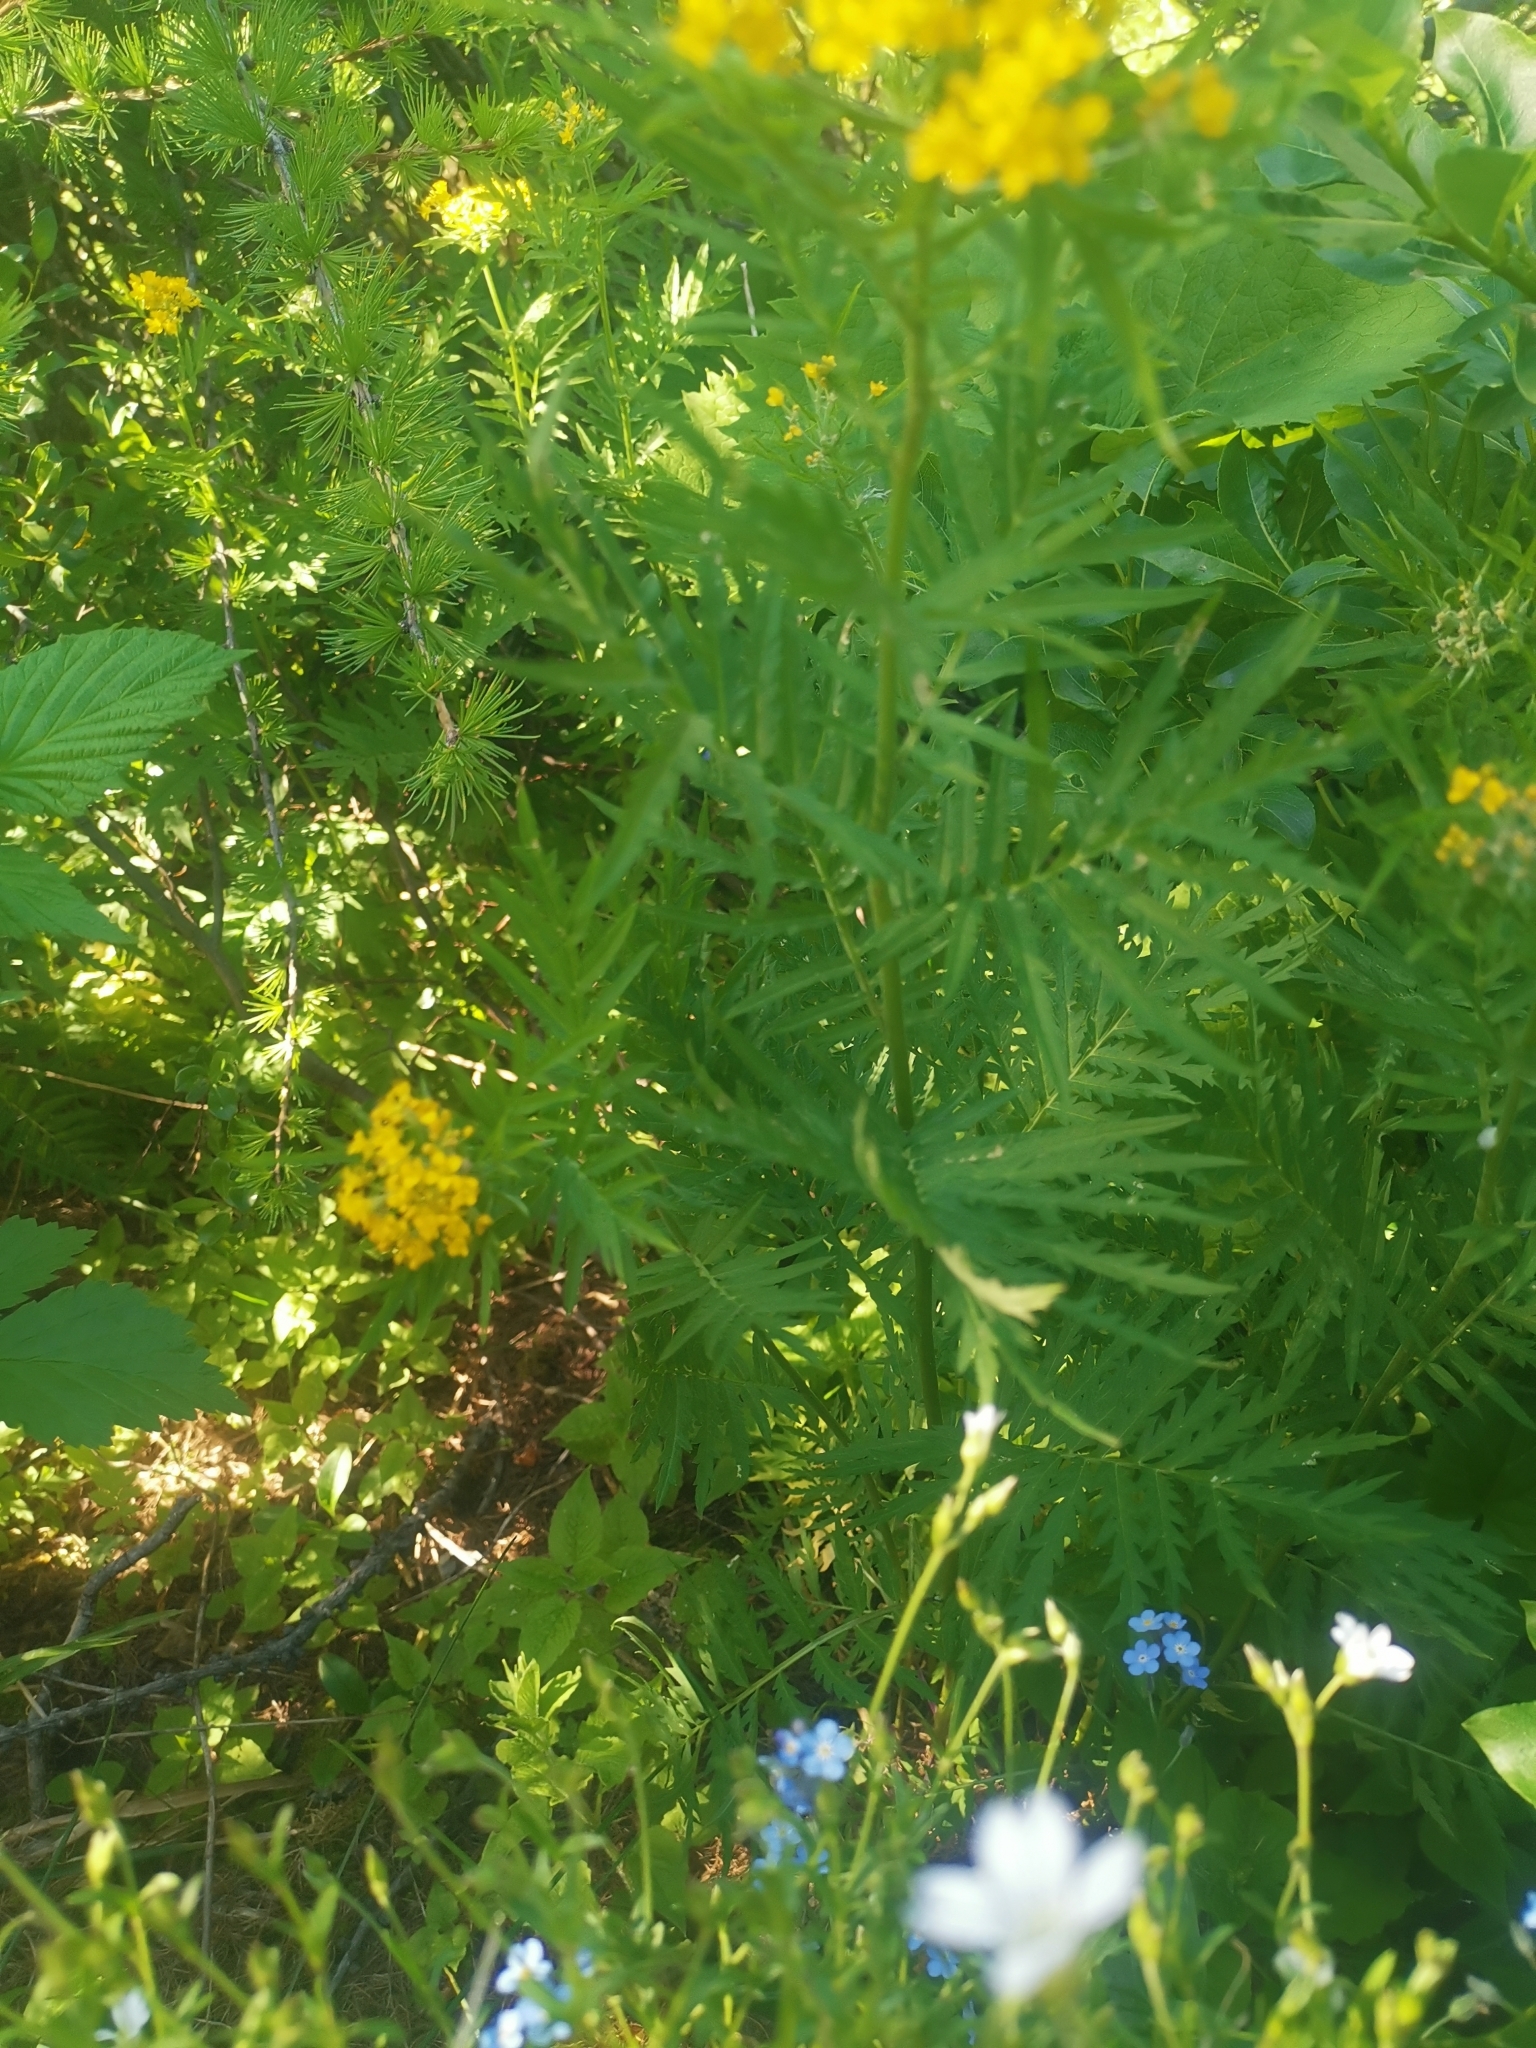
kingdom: Plantae
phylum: Tracheophyta
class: Magnoliopsida
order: Brassicales
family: Brassicaceae
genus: Descurainia
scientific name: Descurainia tanacetifolia
